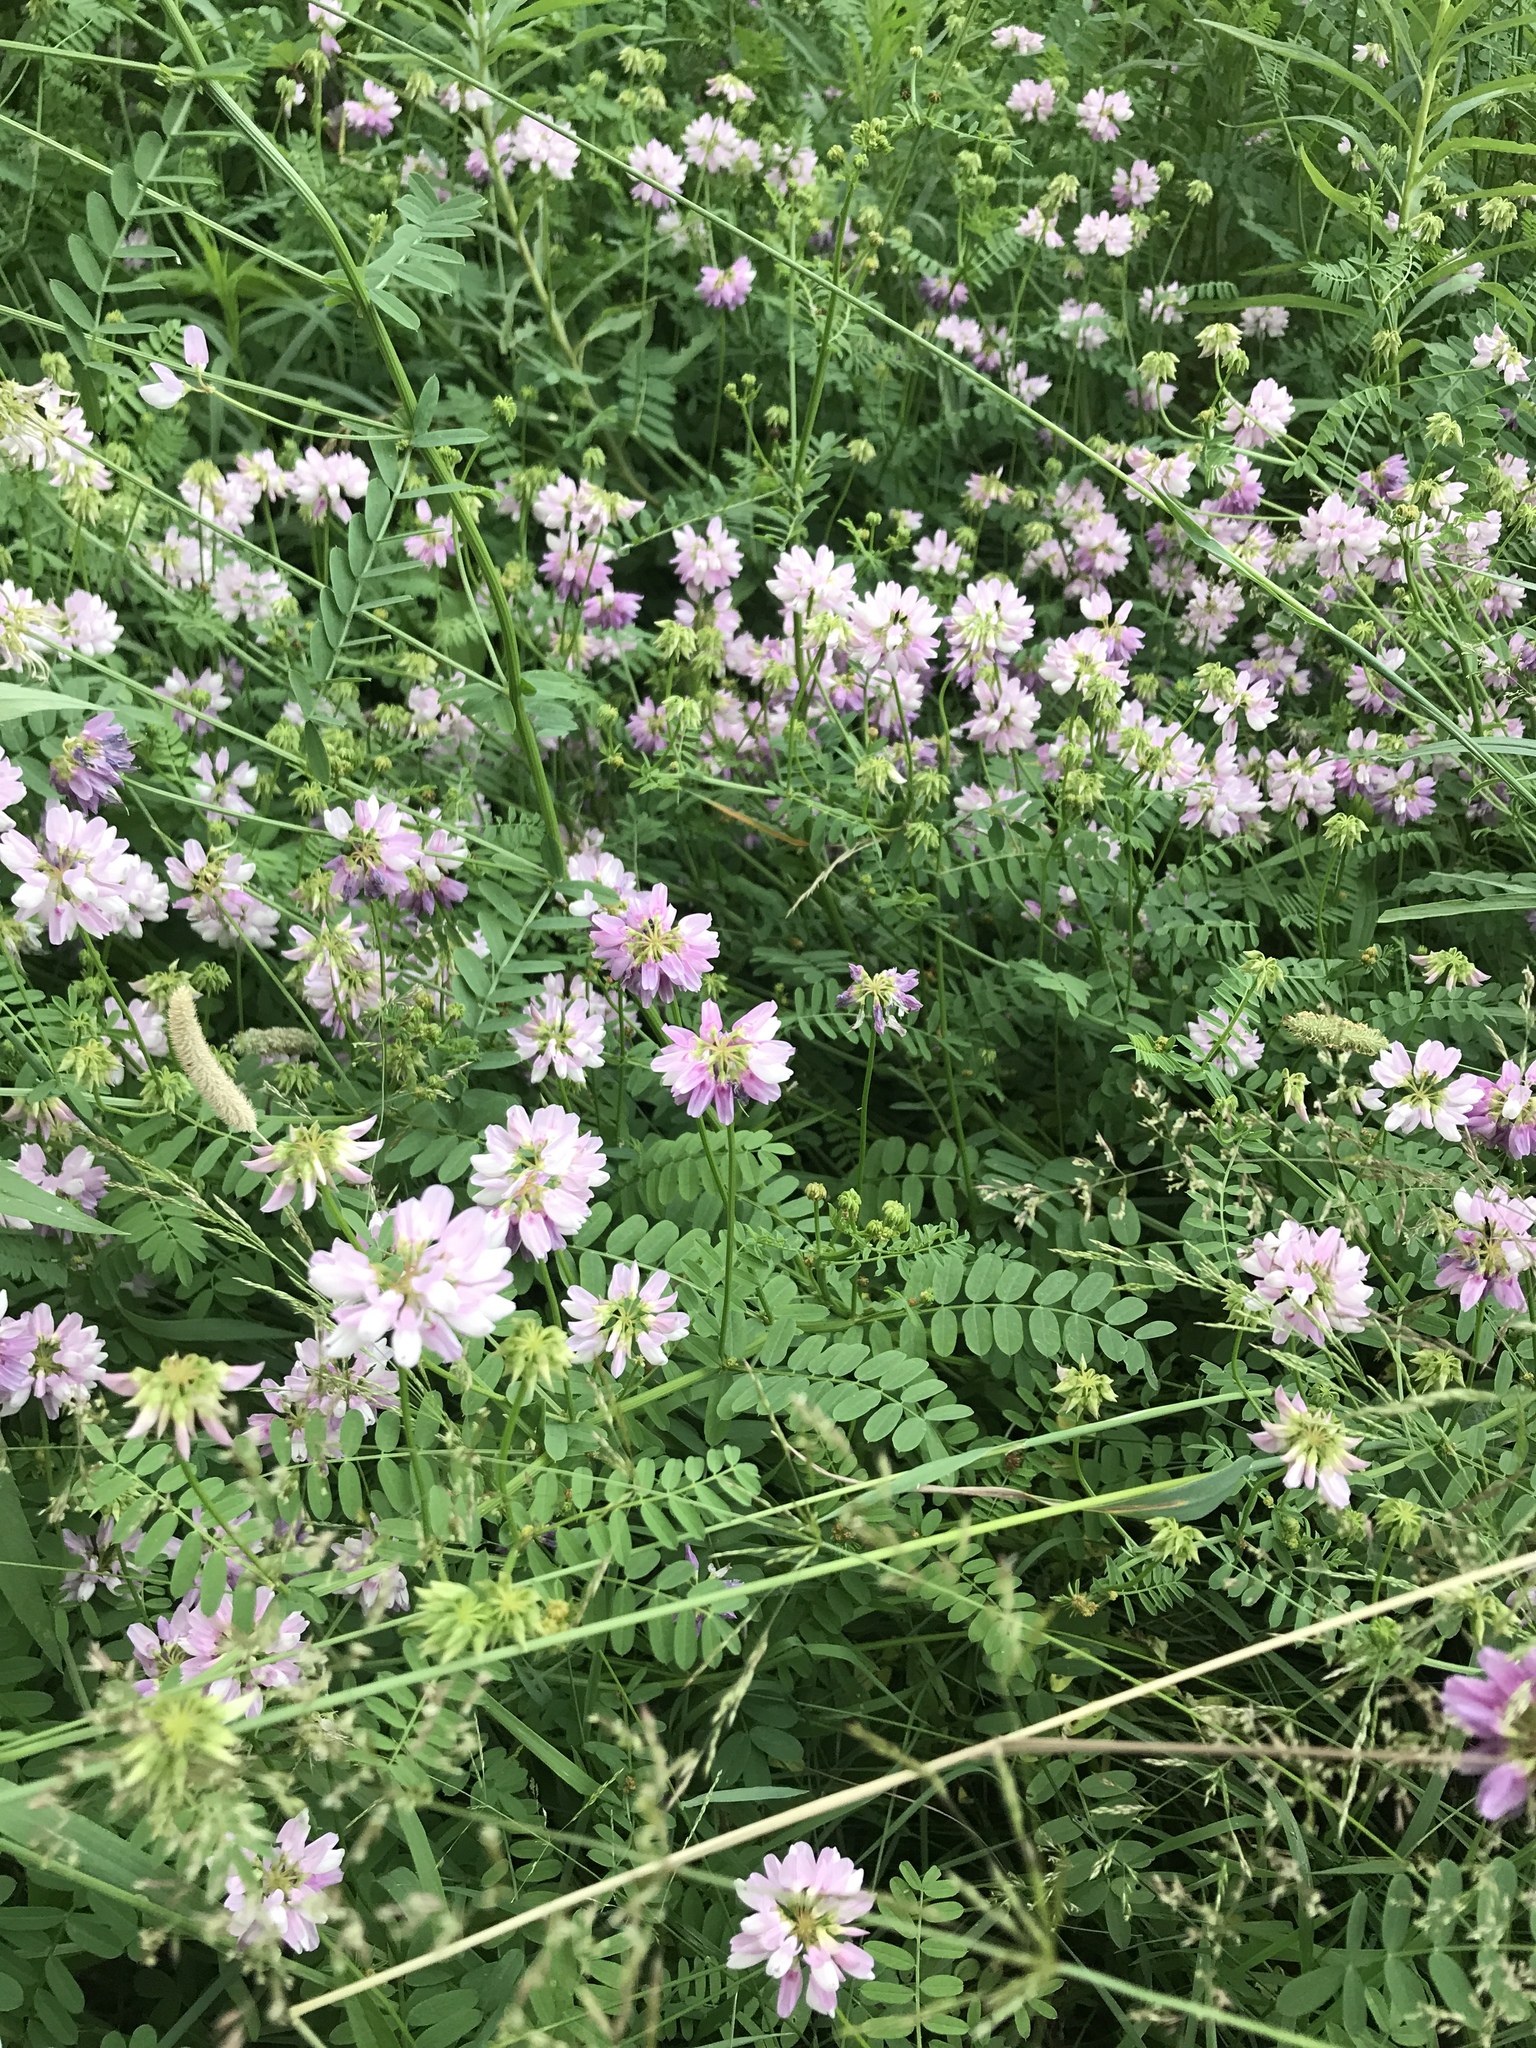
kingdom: Plantae
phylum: Tracheophyta
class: Magnoliopsida
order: Fabales
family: Fabaceae
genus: Coronilla
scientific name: Coronilla varia
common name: Crownvetch
